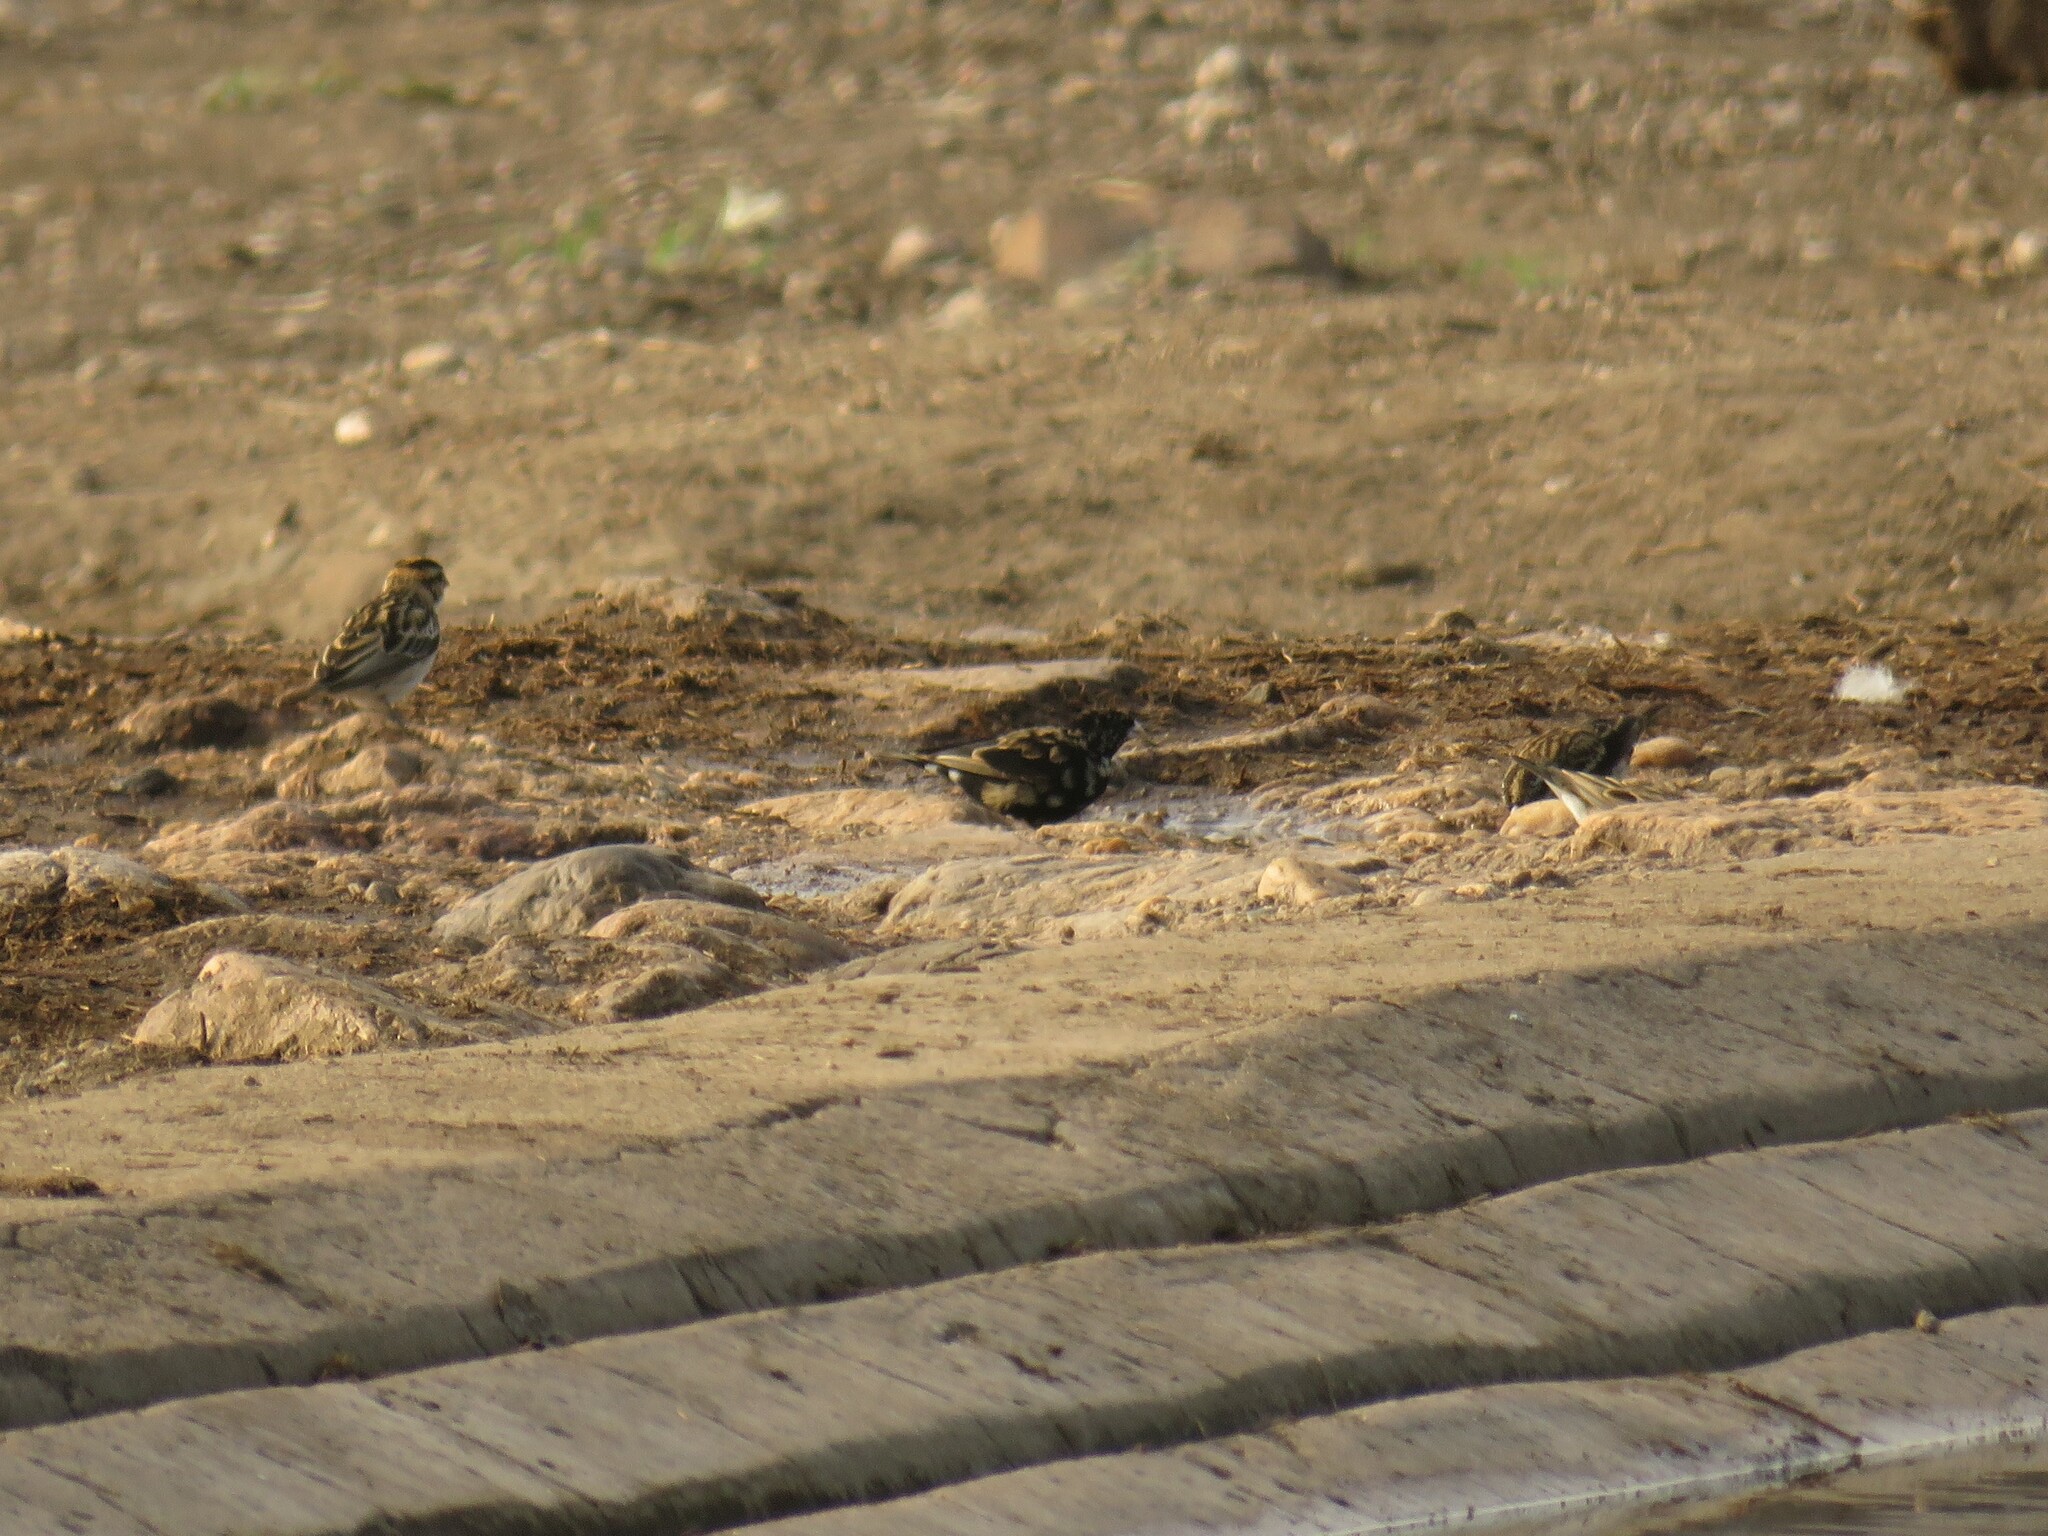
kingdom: Animalia
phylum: Chordata
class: Aves
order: Passeriformes
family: Viduidae
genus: Vidua
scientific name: Vidua purpurascens
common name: Purple indigobird
